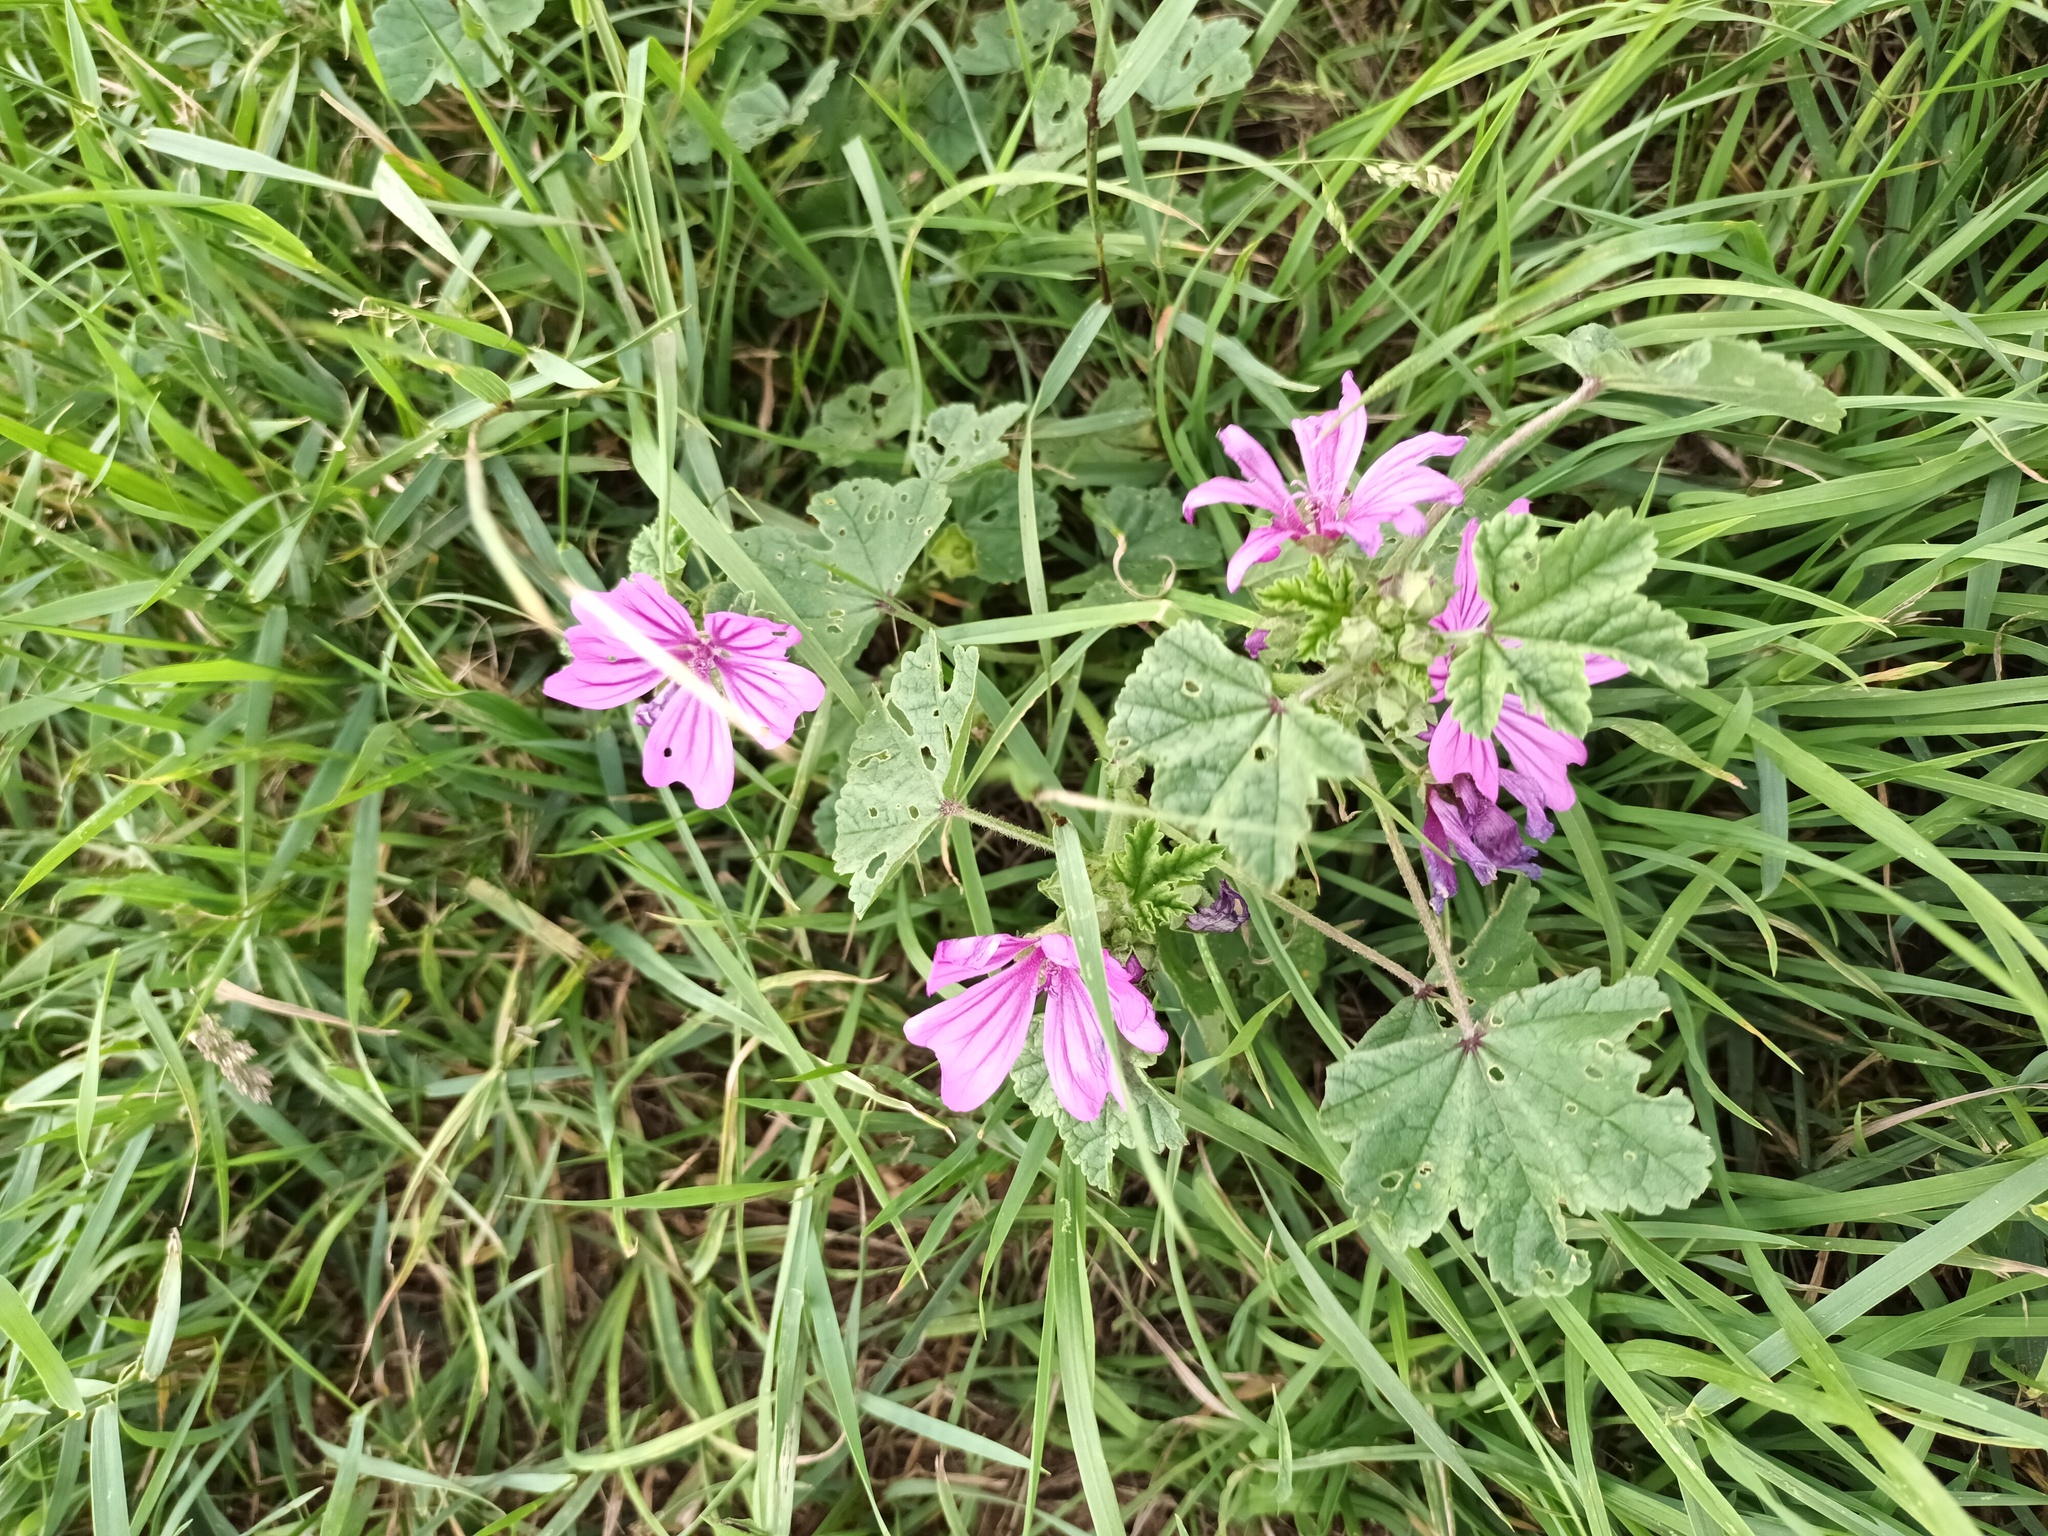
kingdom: Plantae
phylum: Tracheophyta
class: Magnoliopsida
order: Malvales
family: Malvaceae
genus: Malva
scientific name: Malva sylvestris
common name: Common mallow
